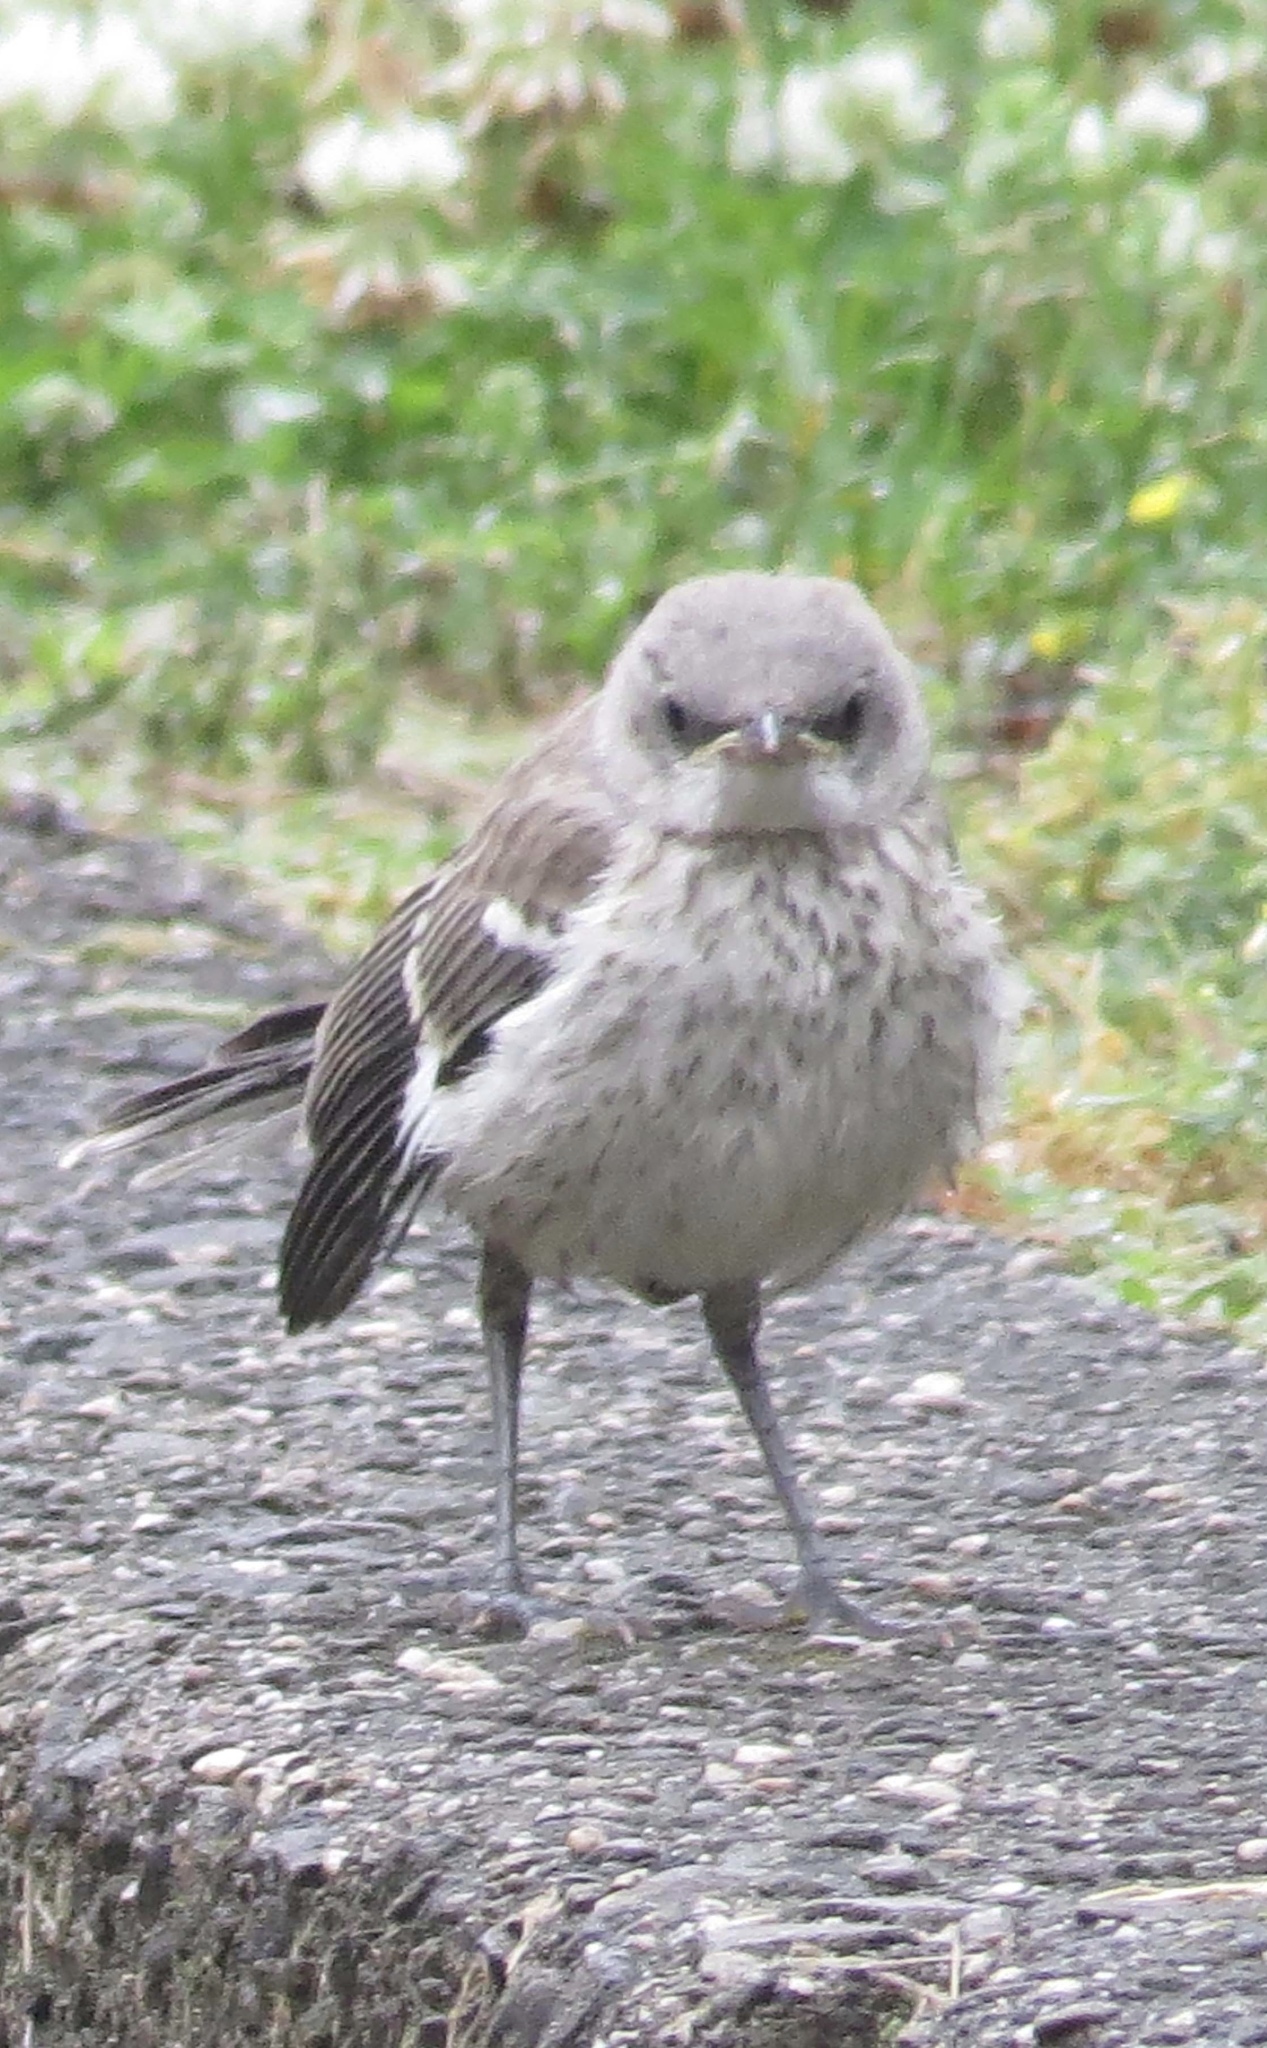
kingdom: Animalia
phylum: Chordata
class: Aves
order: Passeriformes
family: Mimidae
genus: Mimus
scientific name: Mimus polyglottos
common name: Northern mockingbird
